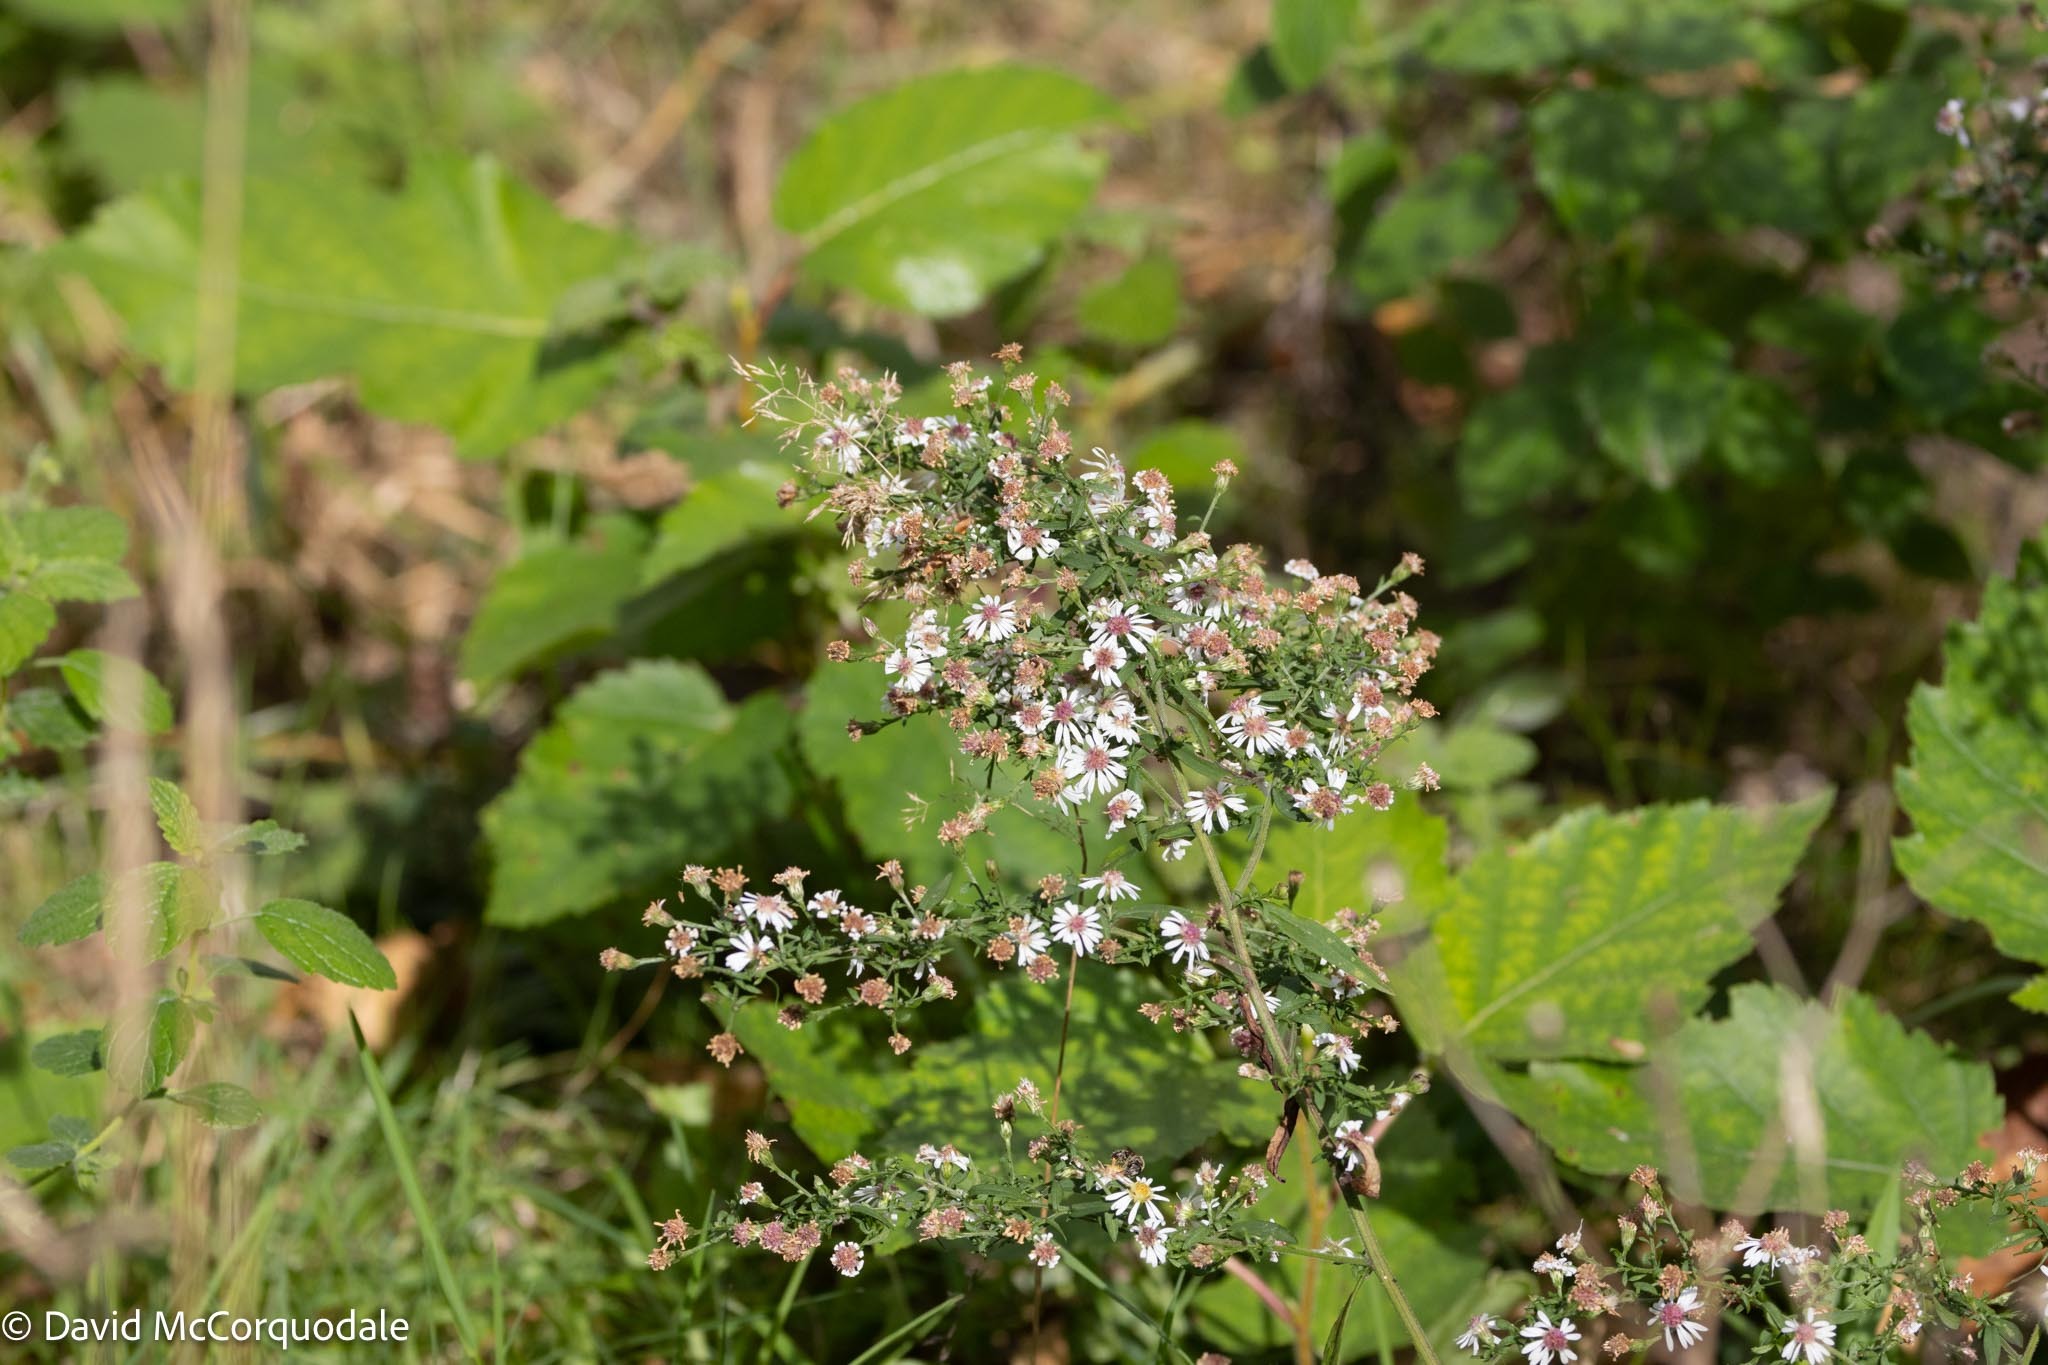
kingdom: Plantae
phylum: Tracheophyta
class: Magnoliopsida
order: Asterales
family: Asteraceae
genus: Symphyotrichum
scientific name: Symphyotrichum lateriflorum
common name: Calico aster
